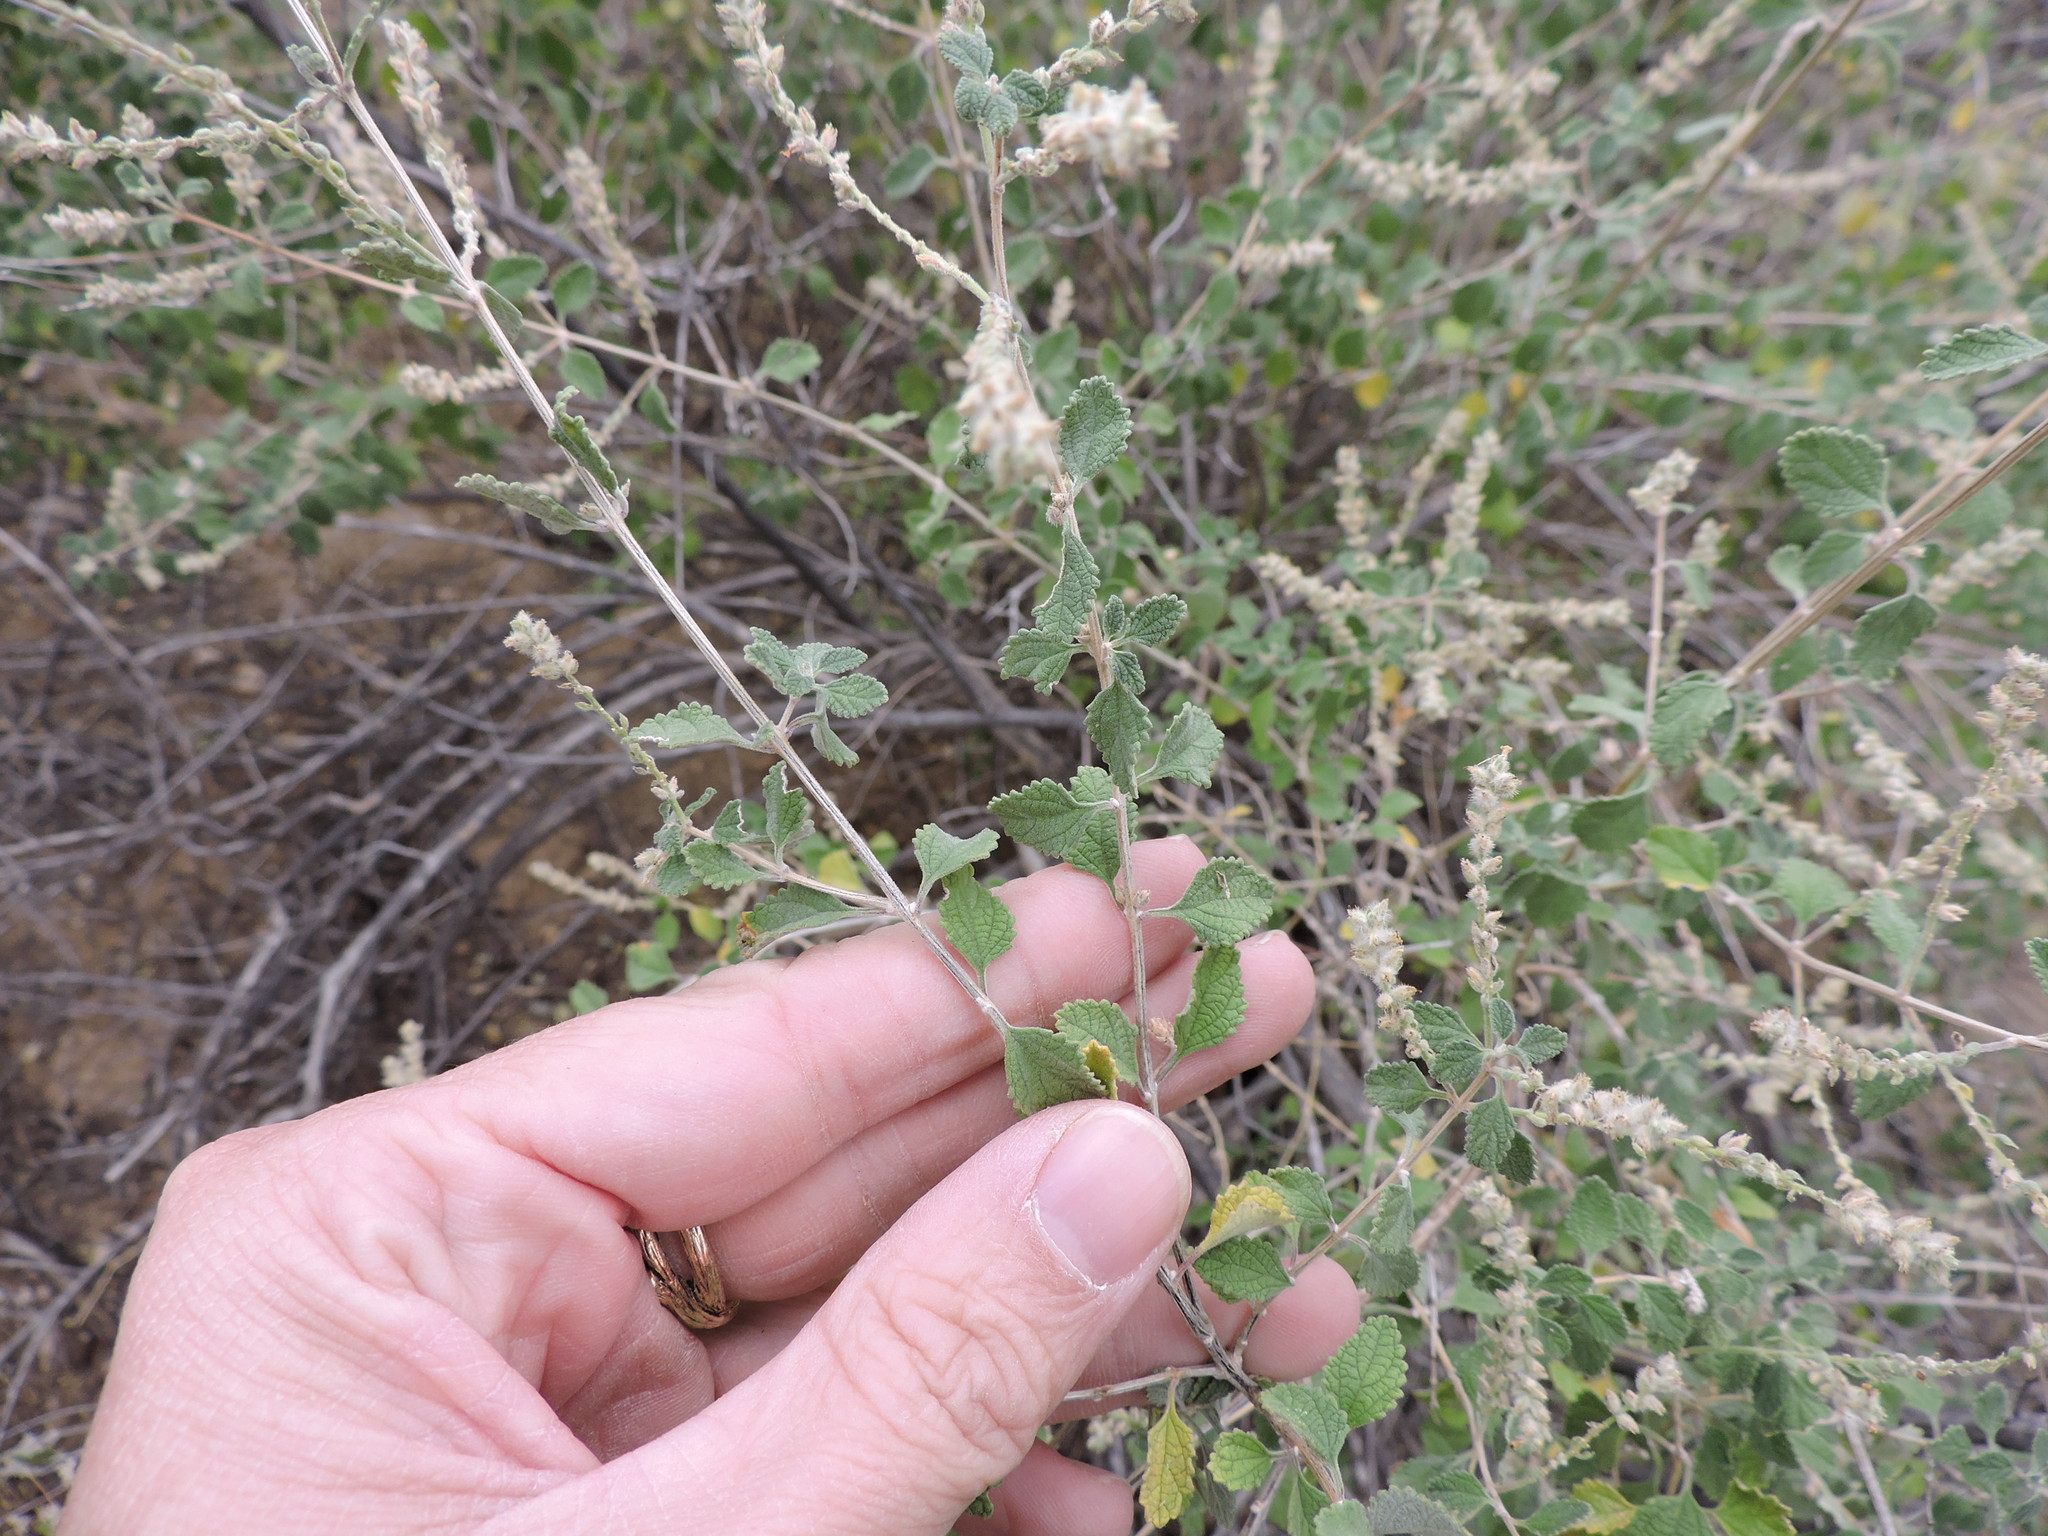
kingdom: Plantae
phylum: Tracheophyta
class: Magnoliopsida
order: Lamiales
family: Verbenaceae
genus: Aloysia
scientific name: Aloysia wrightii
